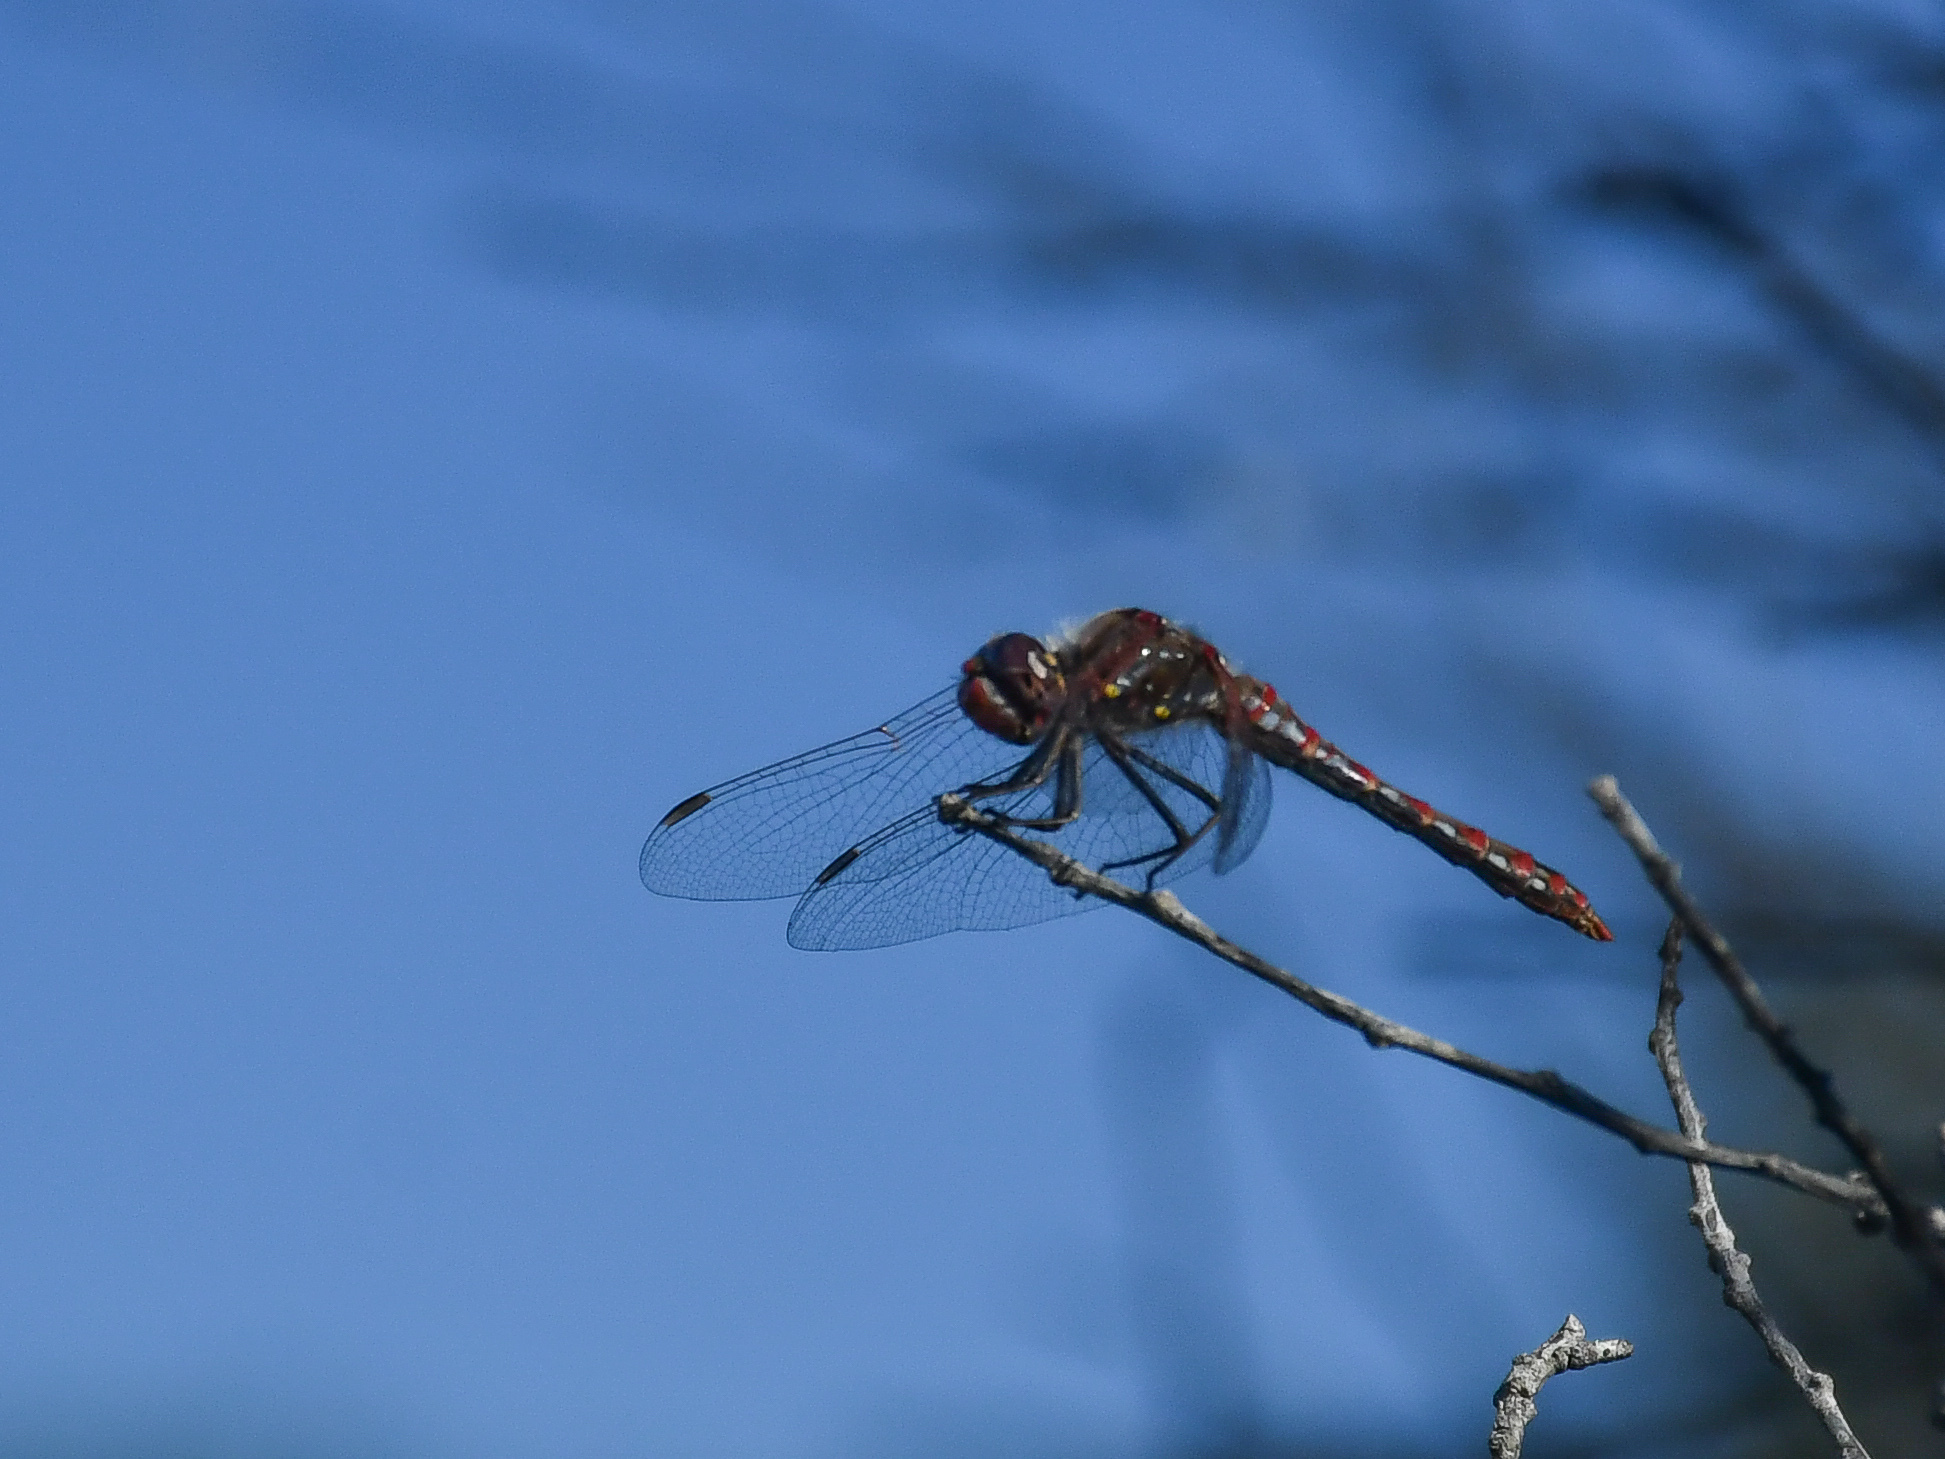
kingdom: Animalia
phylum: Arthropoda
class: Insecta
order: Odonata
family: Libellulidae
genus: Sympetrum
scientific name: Sympetrum corruptum
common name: Variegated meadowhawk
